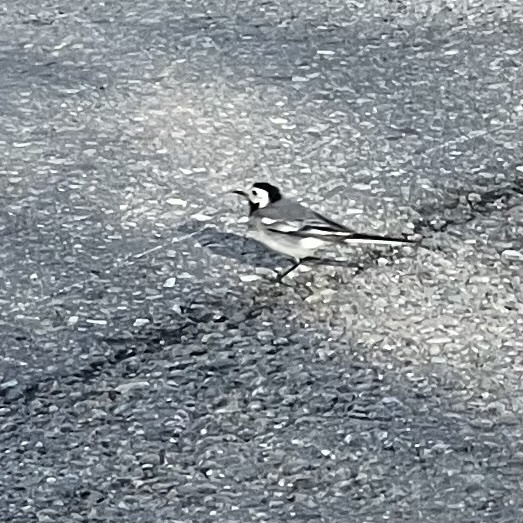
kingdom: Animalia
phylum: Chordata
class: Aves
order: Passeriformes
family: Motacillidae
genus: Motacilla
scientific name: Motacilla alba
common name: White wagtail
